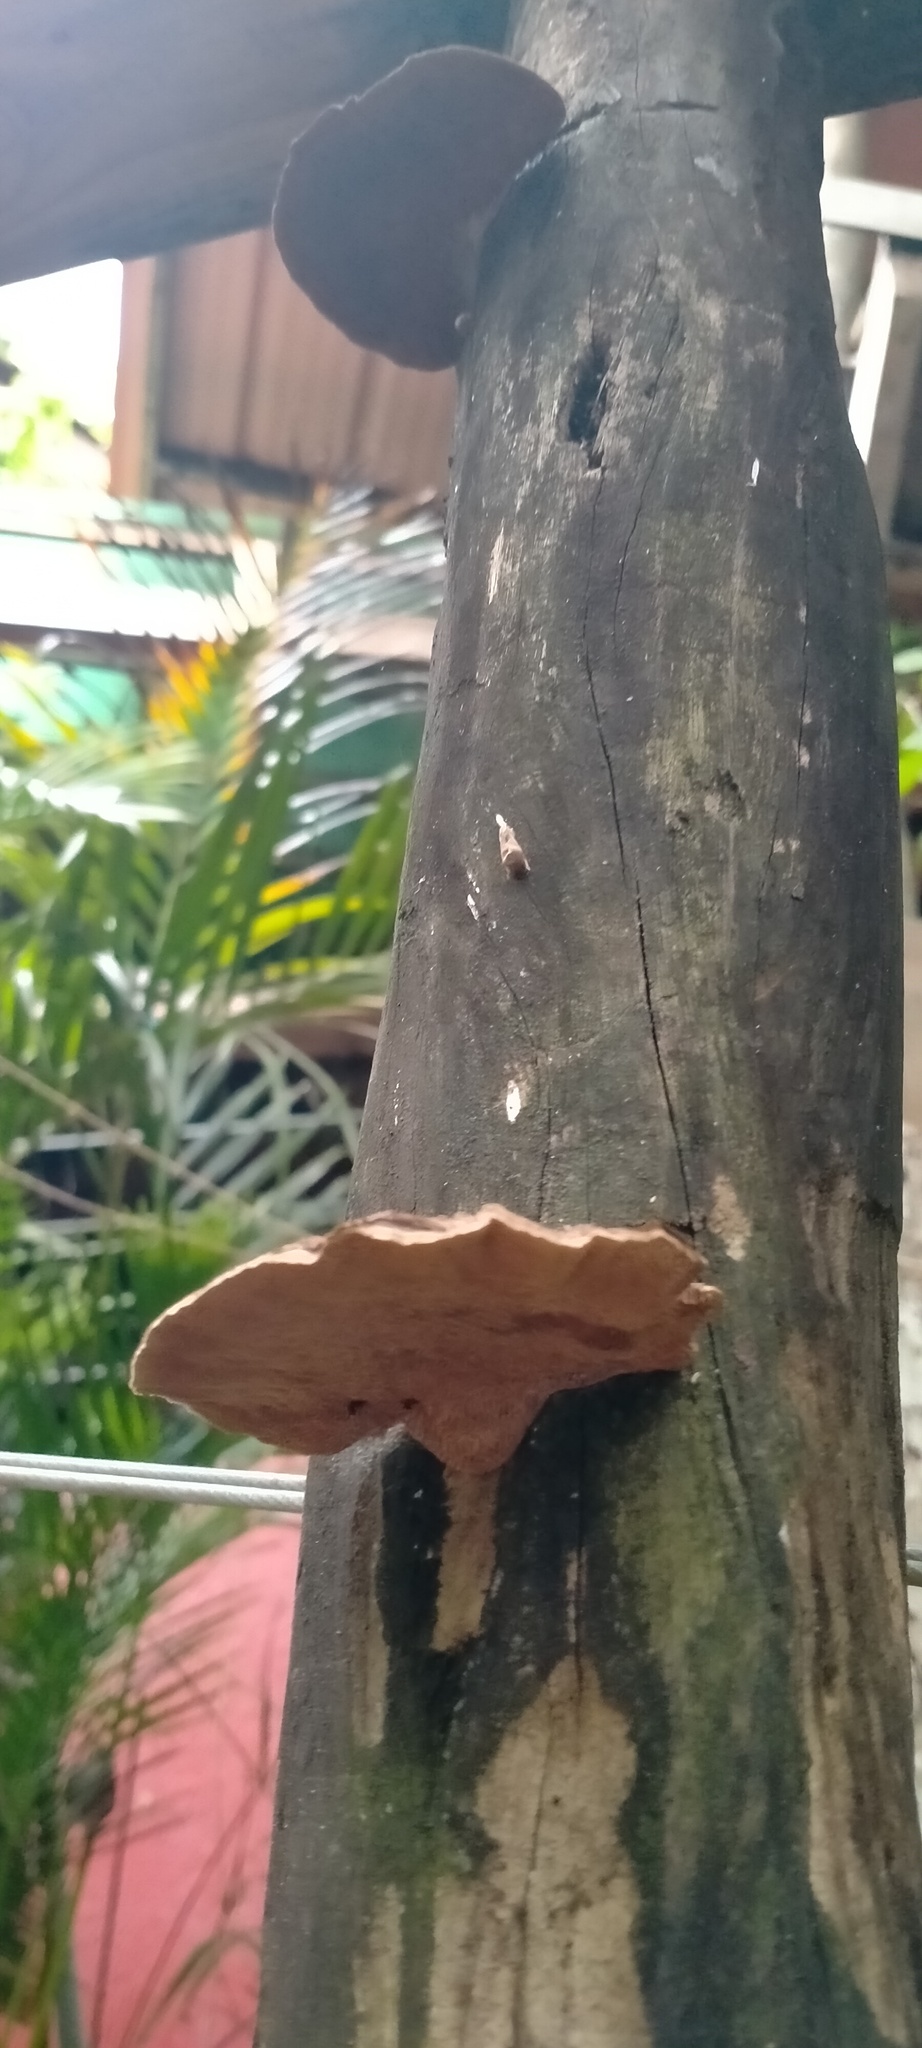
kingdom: Fungi
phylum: Basidiomycota
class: Agaricomycetes
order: Polyporales
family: Polyporaceae
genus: Trametes
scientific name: Trametes cubensis
